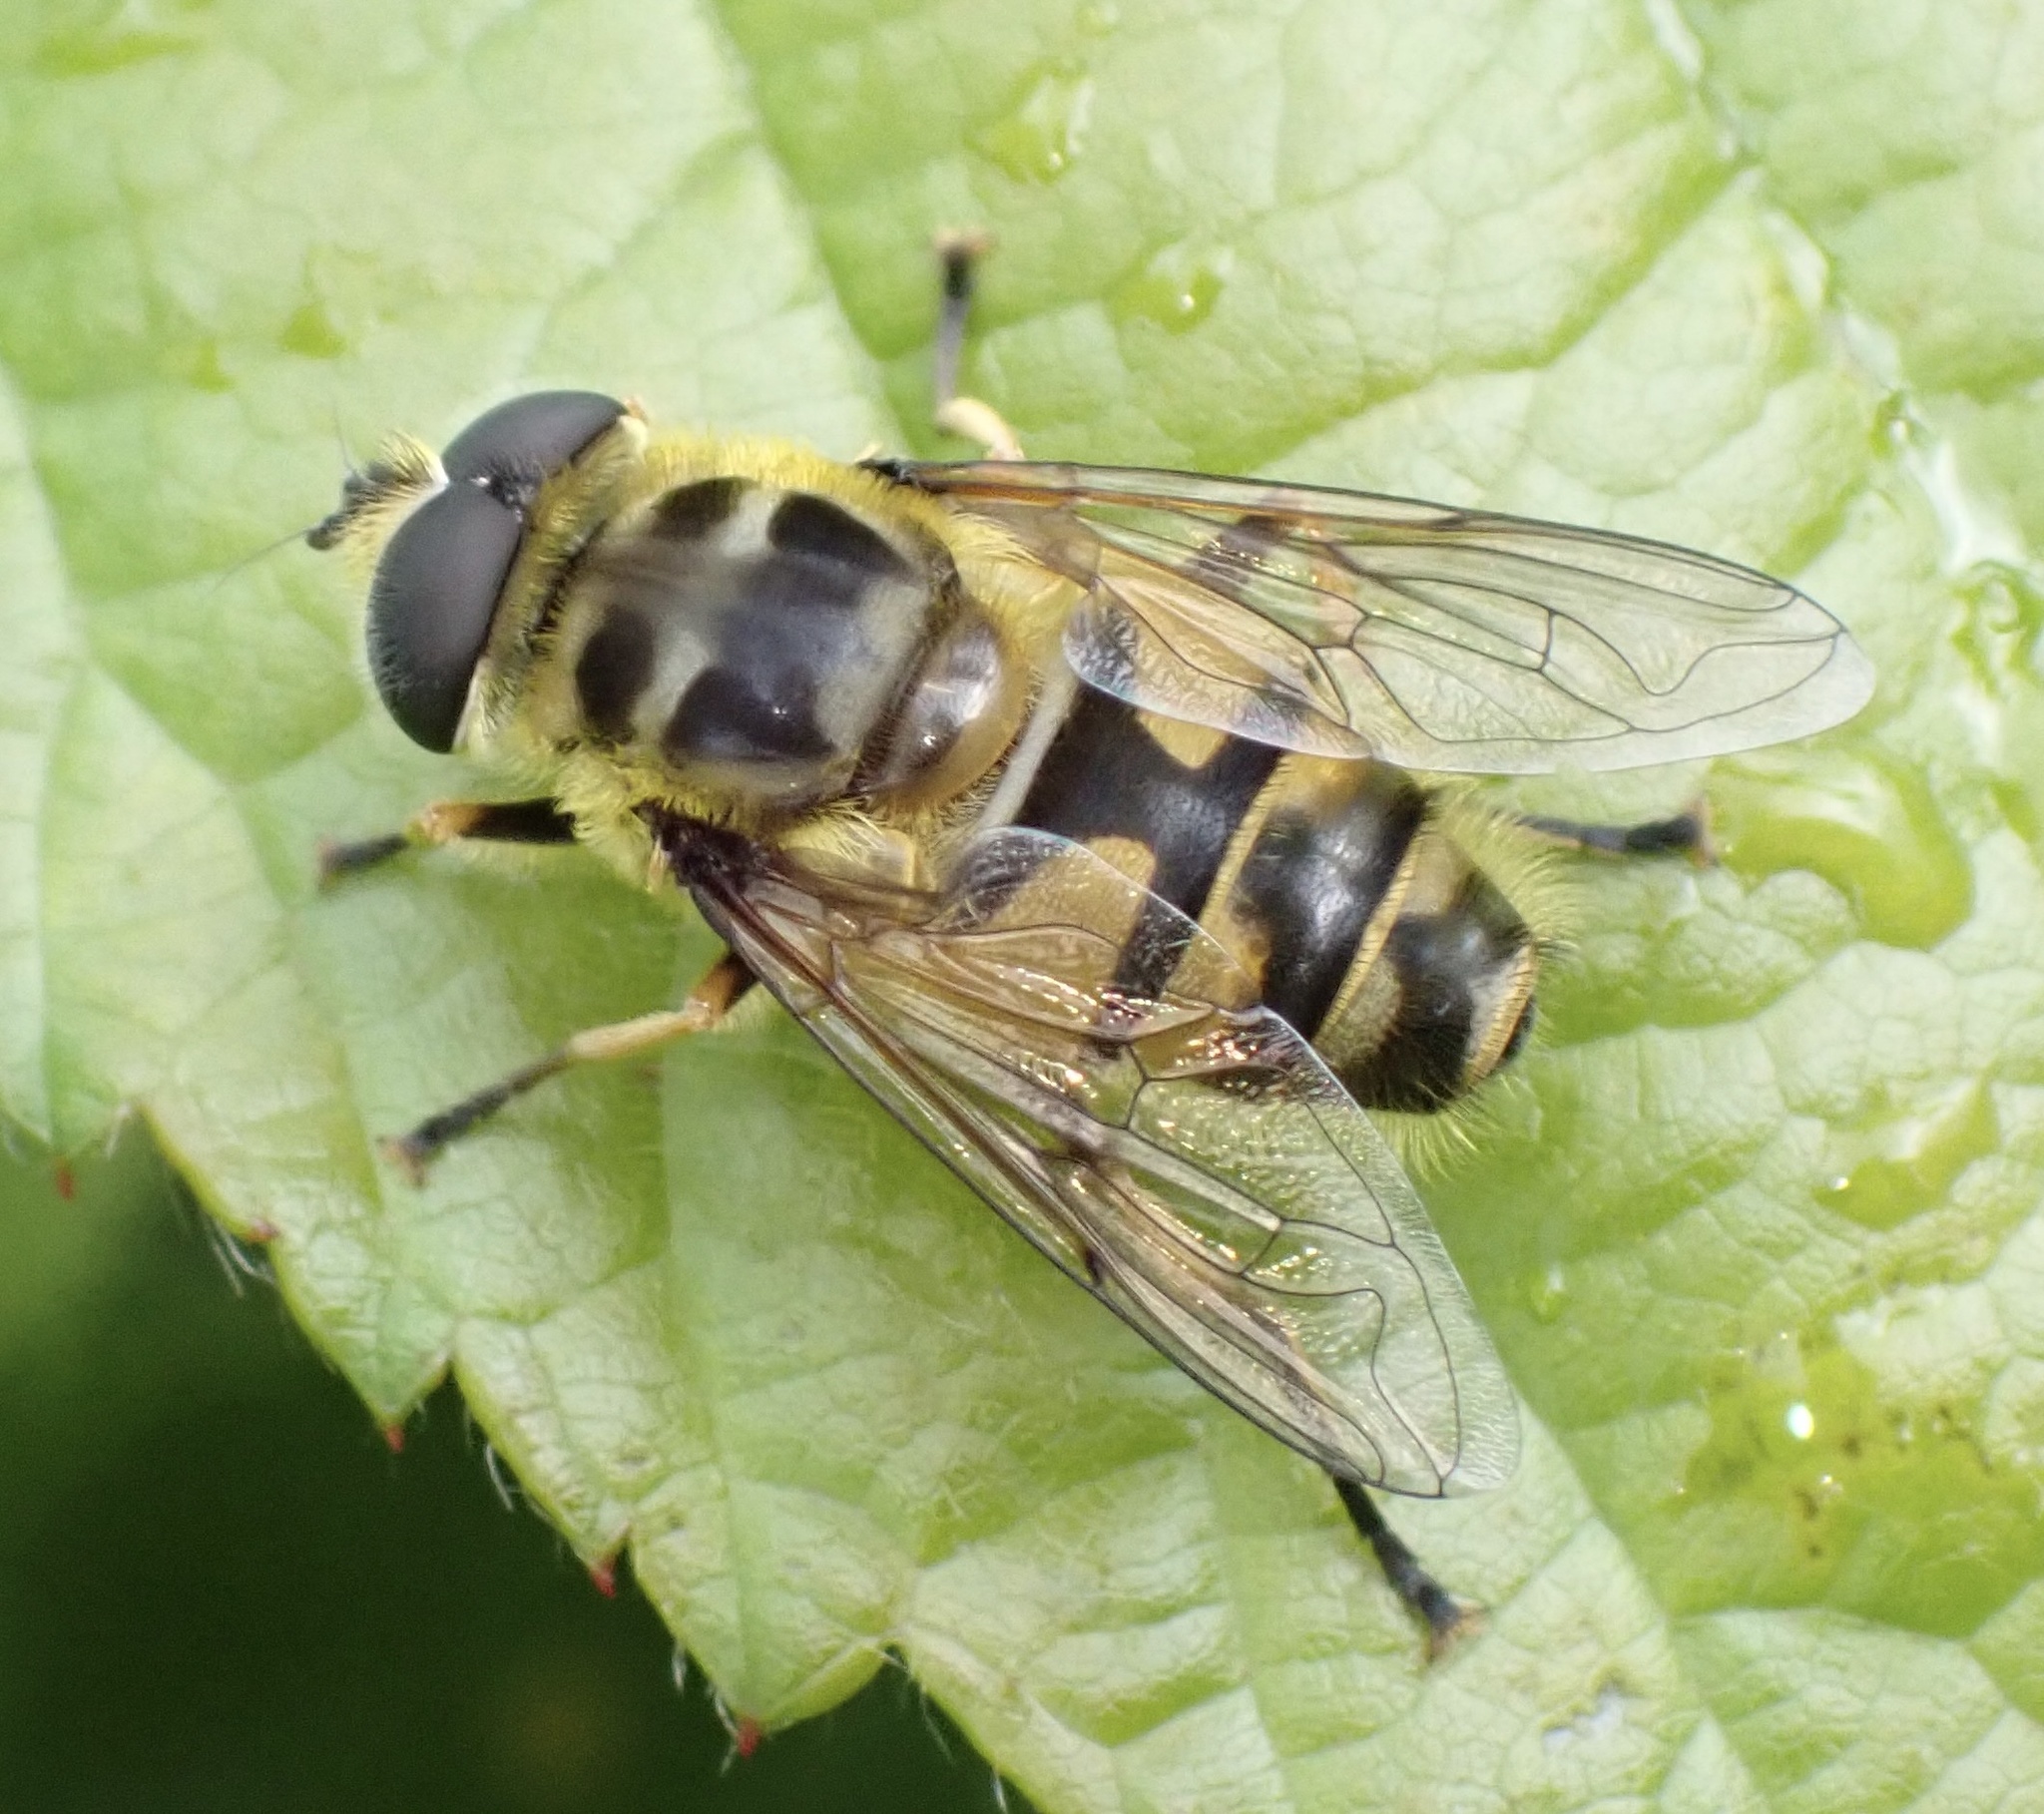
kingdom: Animalia
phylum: Arthropoda
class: Insecta
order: Diptera
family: Syrphidae
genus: Myathropa
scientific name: Myathropa florea
